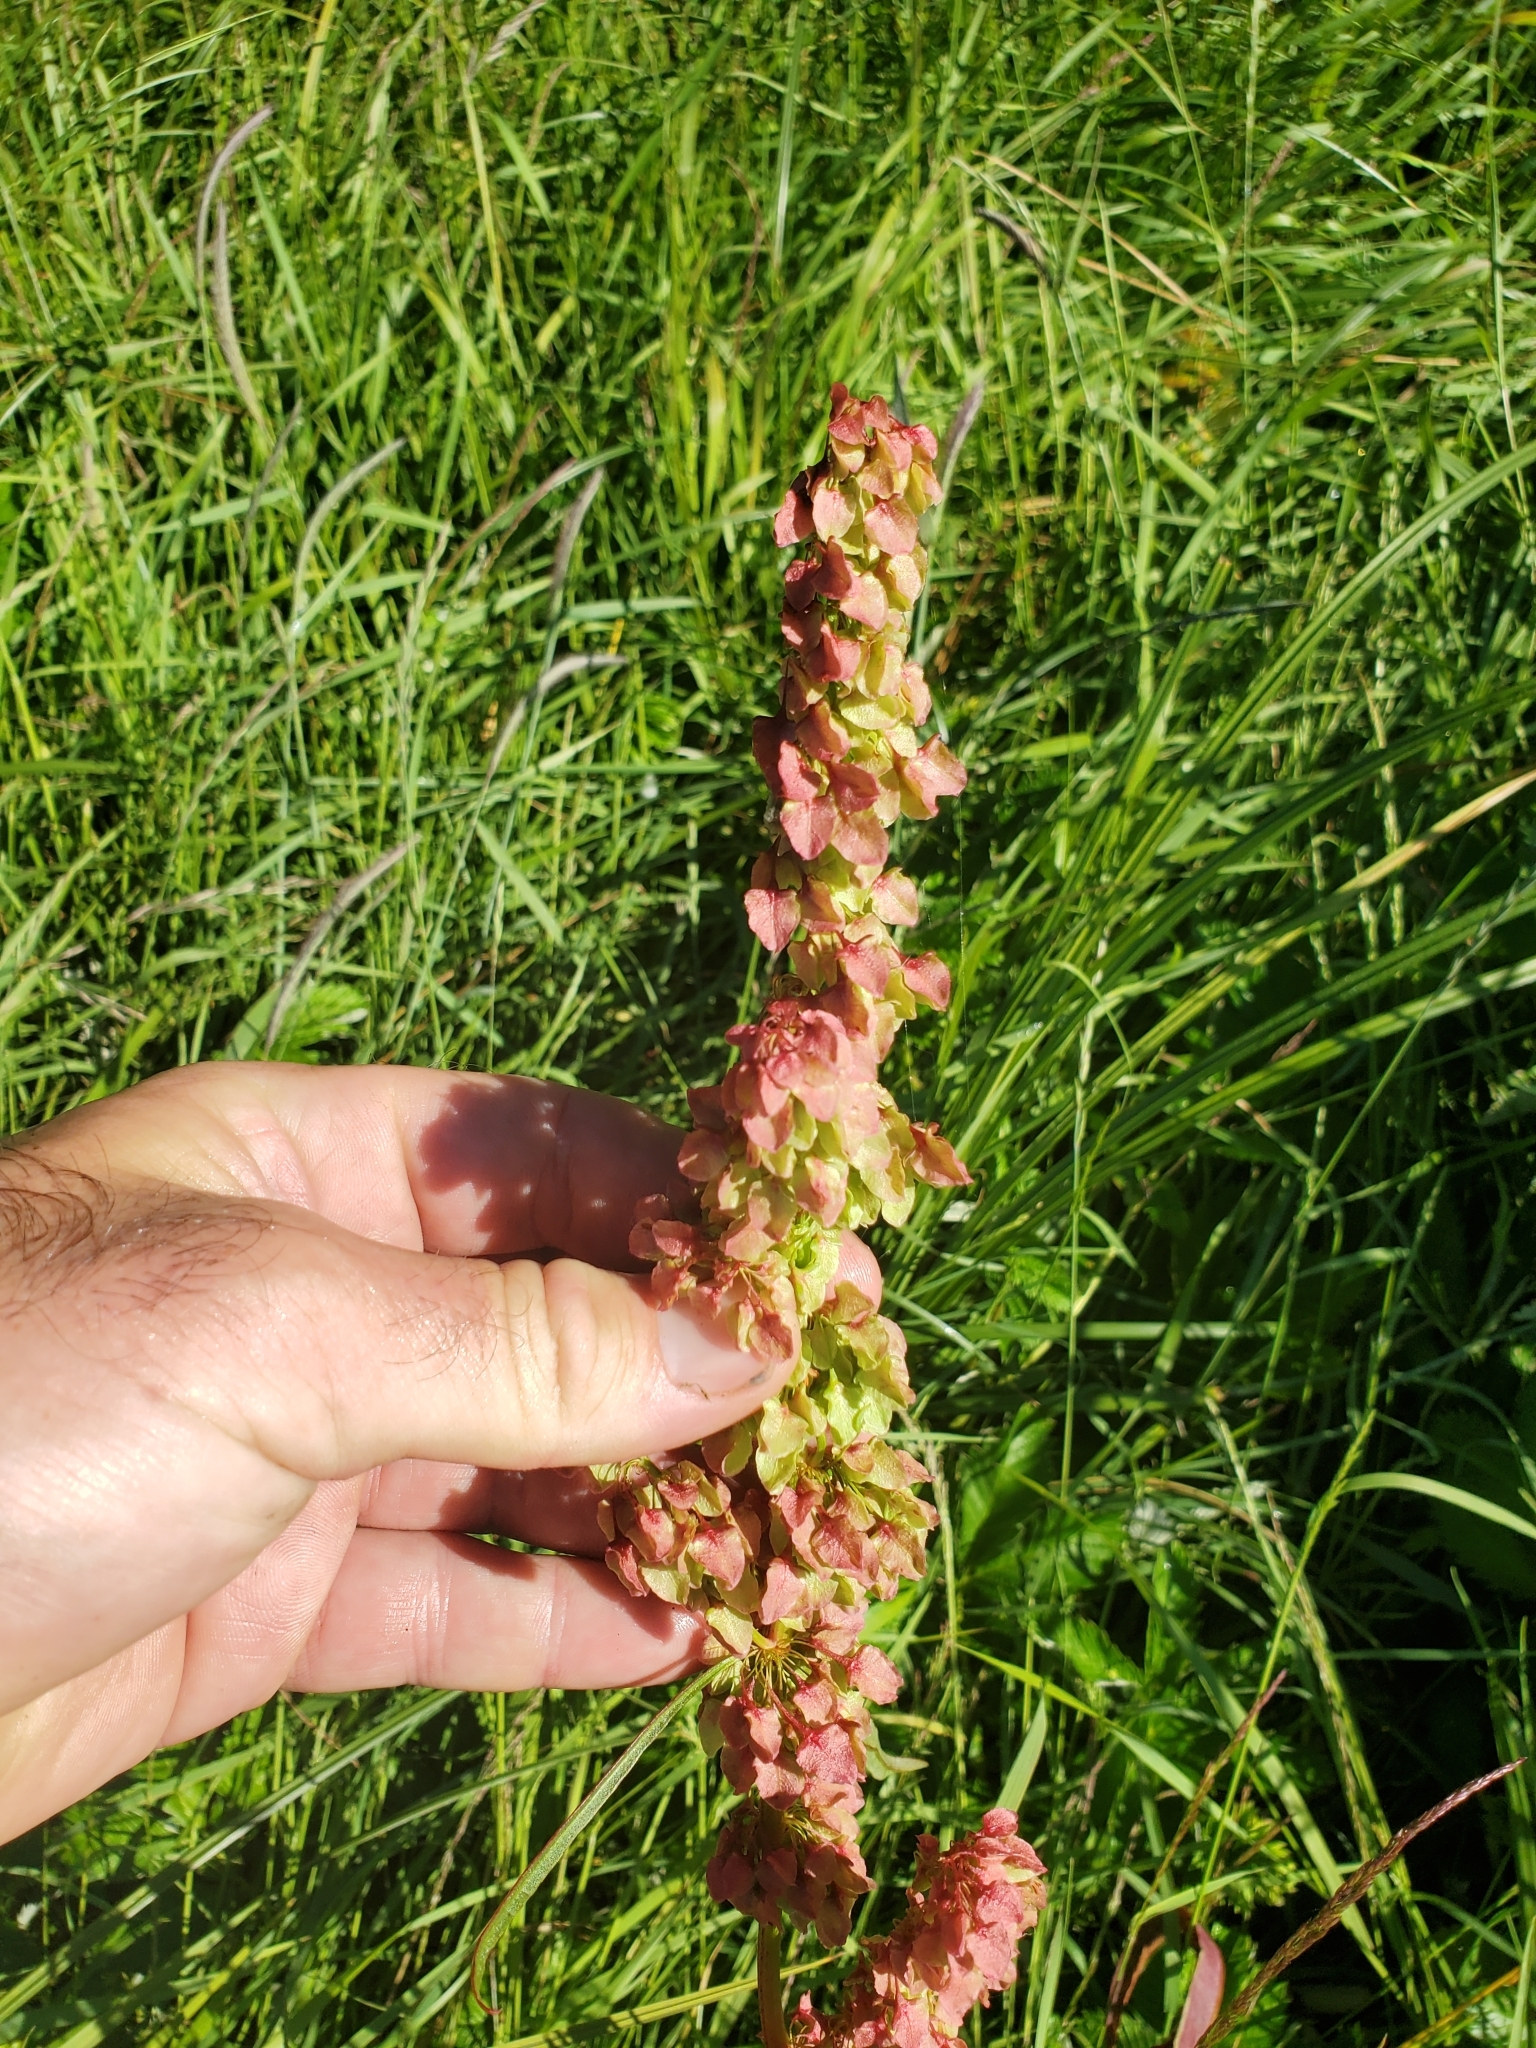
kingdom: Plantae
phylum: Tracheophyta
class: Magnoliopsida
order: Caryophyllales
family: Polygonaceae
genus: Rumex
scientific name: Rumex occidentalis
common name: Western dock
